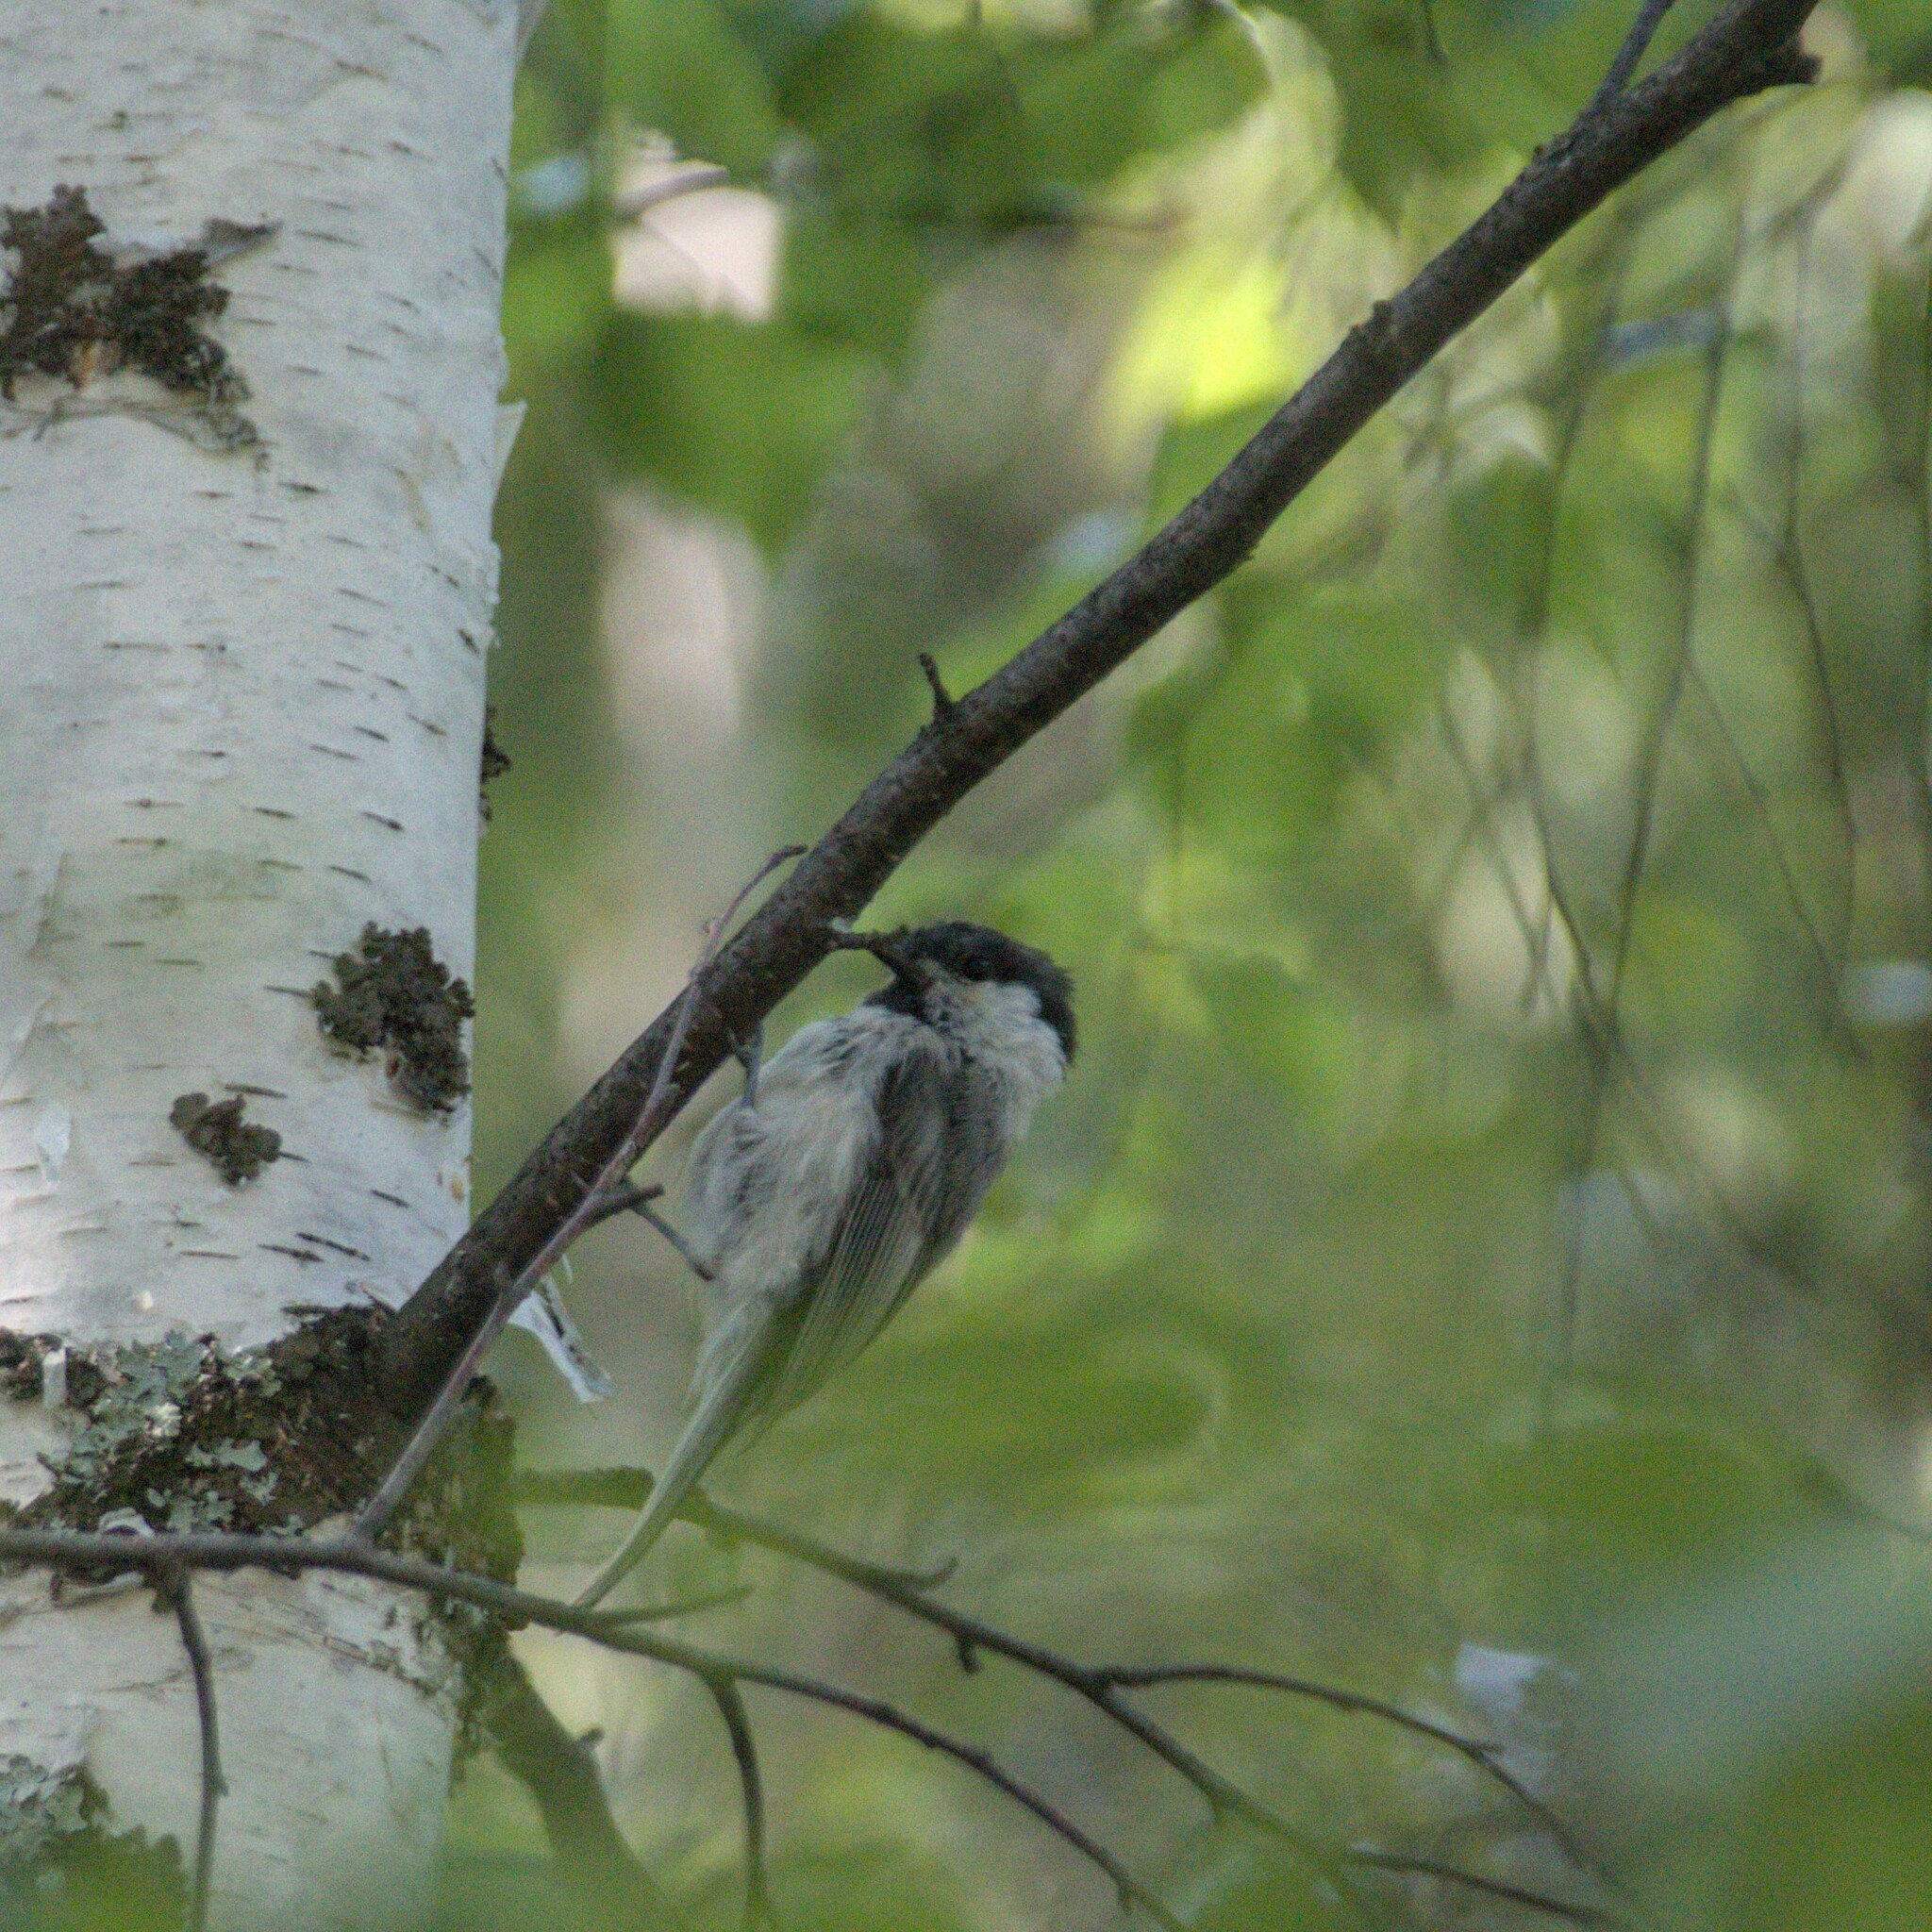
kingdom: Animalia
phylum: Chordata
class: Aves
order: Passeriformes
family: Paridae
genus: Poecile
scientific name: Poecile montanus
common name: Willow tit
